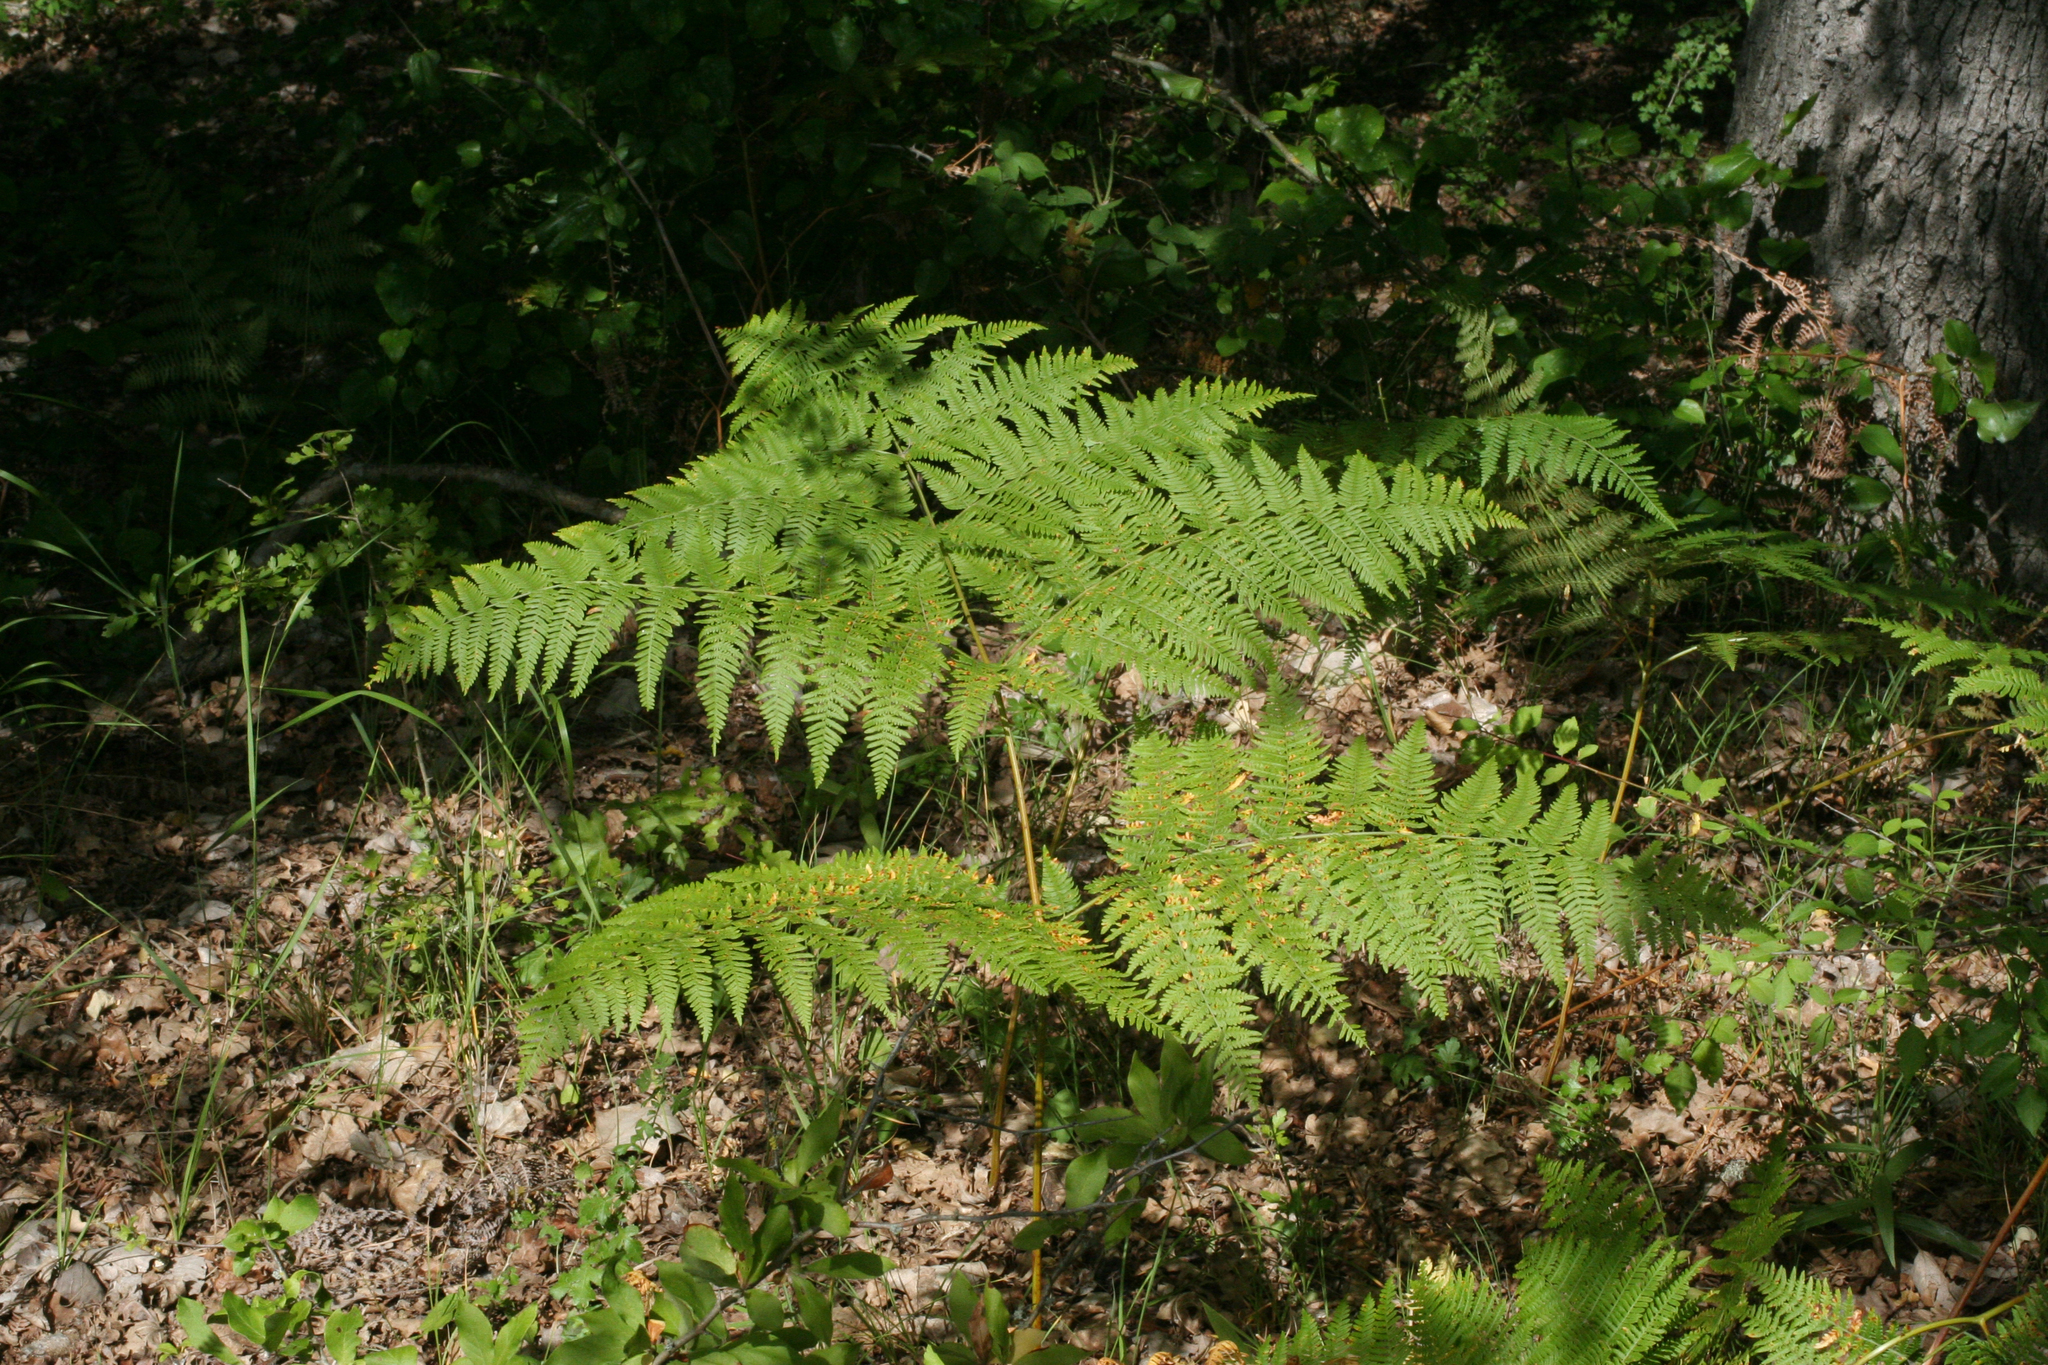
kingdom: Plantae
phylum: Tracheophyta
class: Polypodiopsida
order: Polypodiales
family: Dennstaedtiaceae
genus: Pteridium
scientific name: Pteridium tauricum
